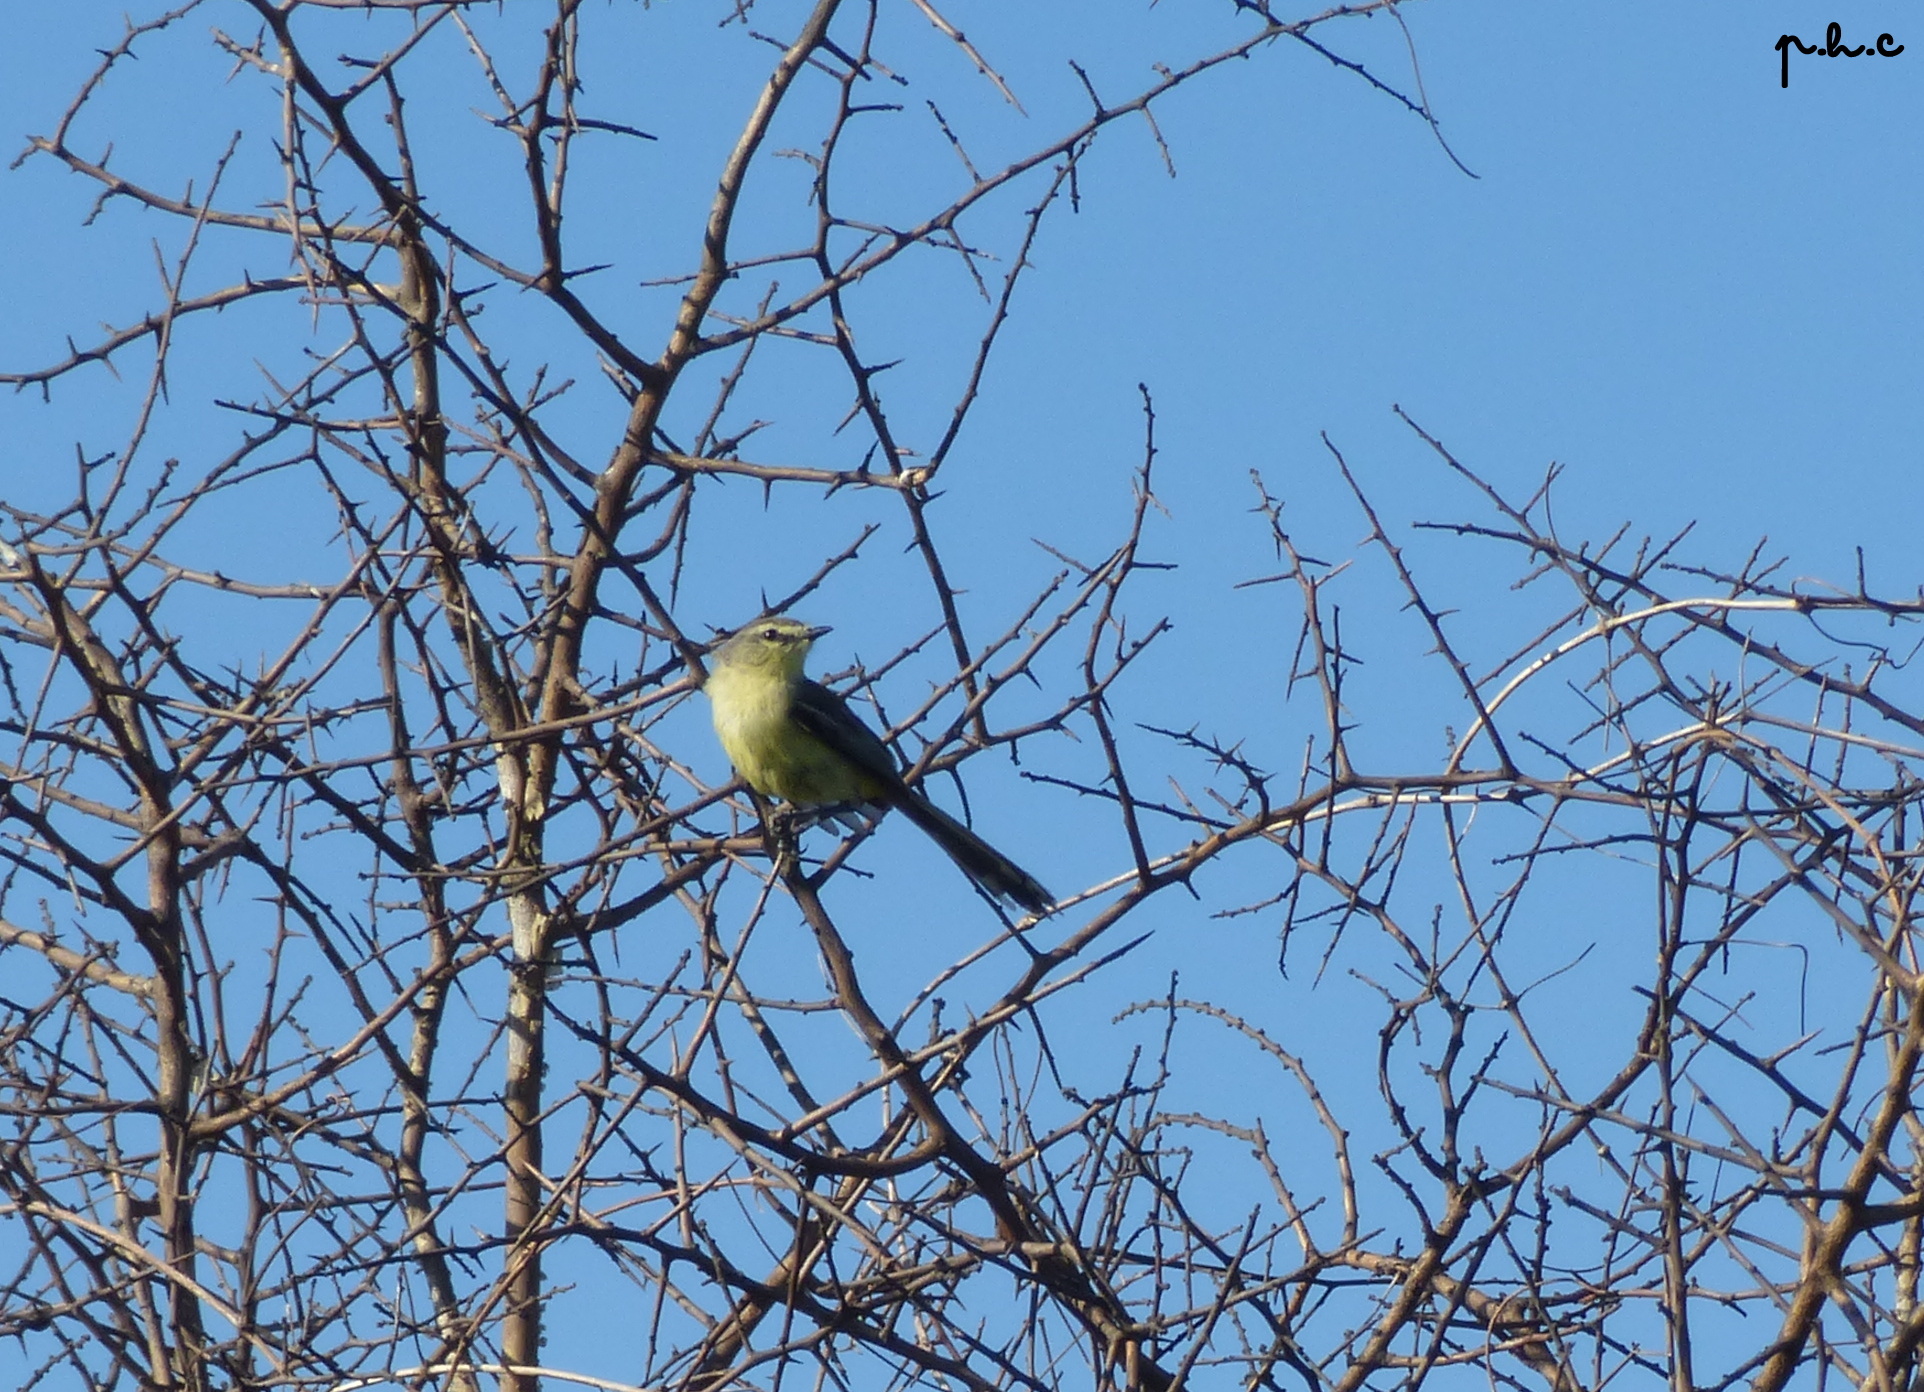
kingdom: Animalia
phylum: Chordata
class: Aves
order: Passeriformes
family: Tyrannidae
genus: Stigmatura
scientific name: Stigmatura budytoides
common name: Greater wagtail-tyrant
